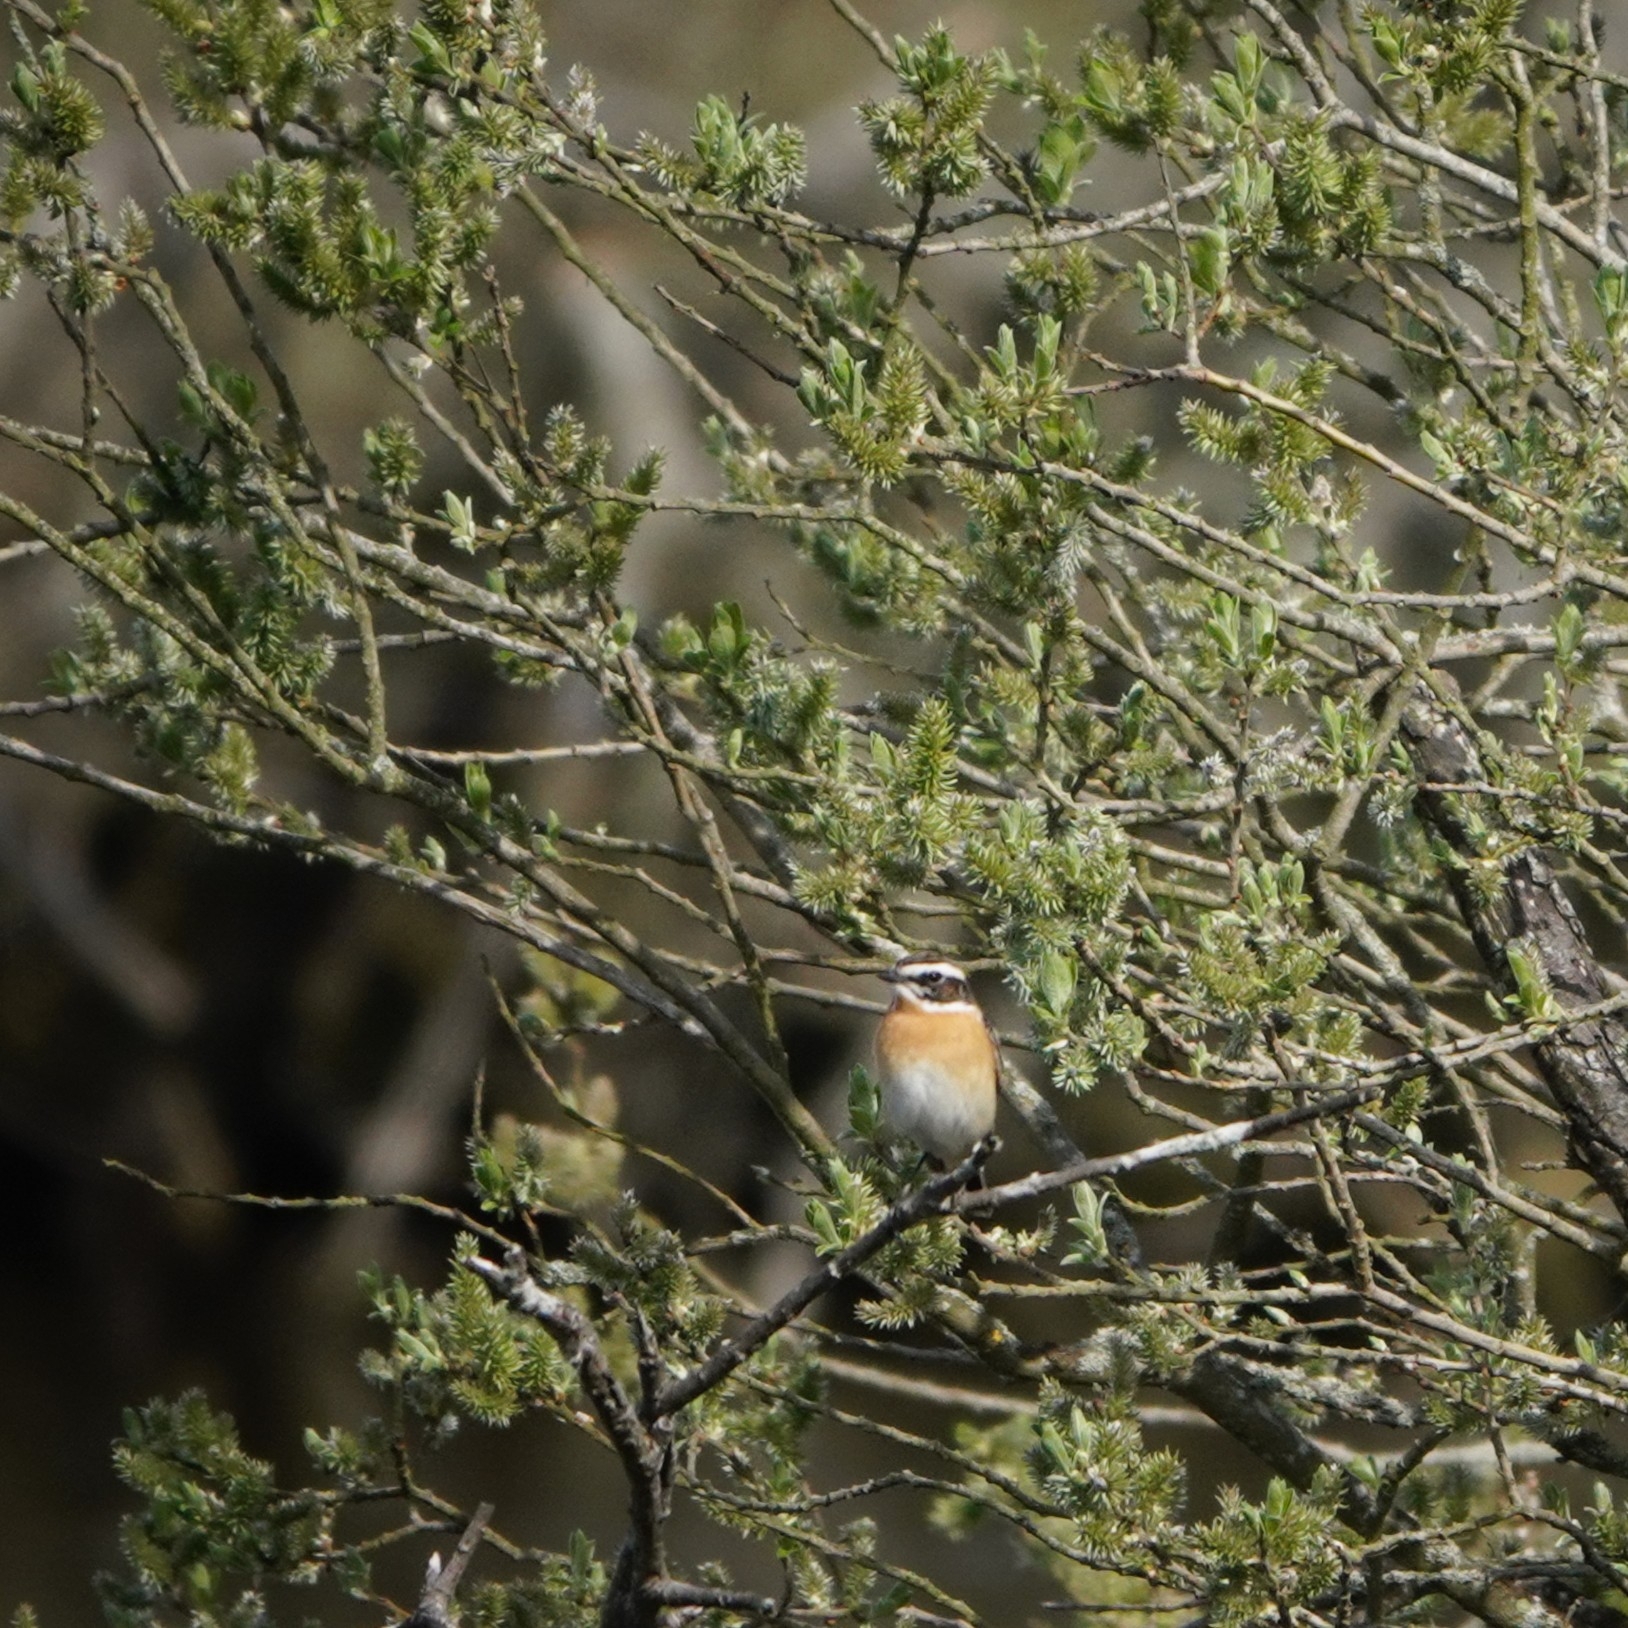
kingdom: Animalia
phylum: Chordata
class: Aves
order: Passeriformes
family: Muscicapidae
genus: Saxicola
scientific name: Saxicola rubetra
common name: Whinchat
